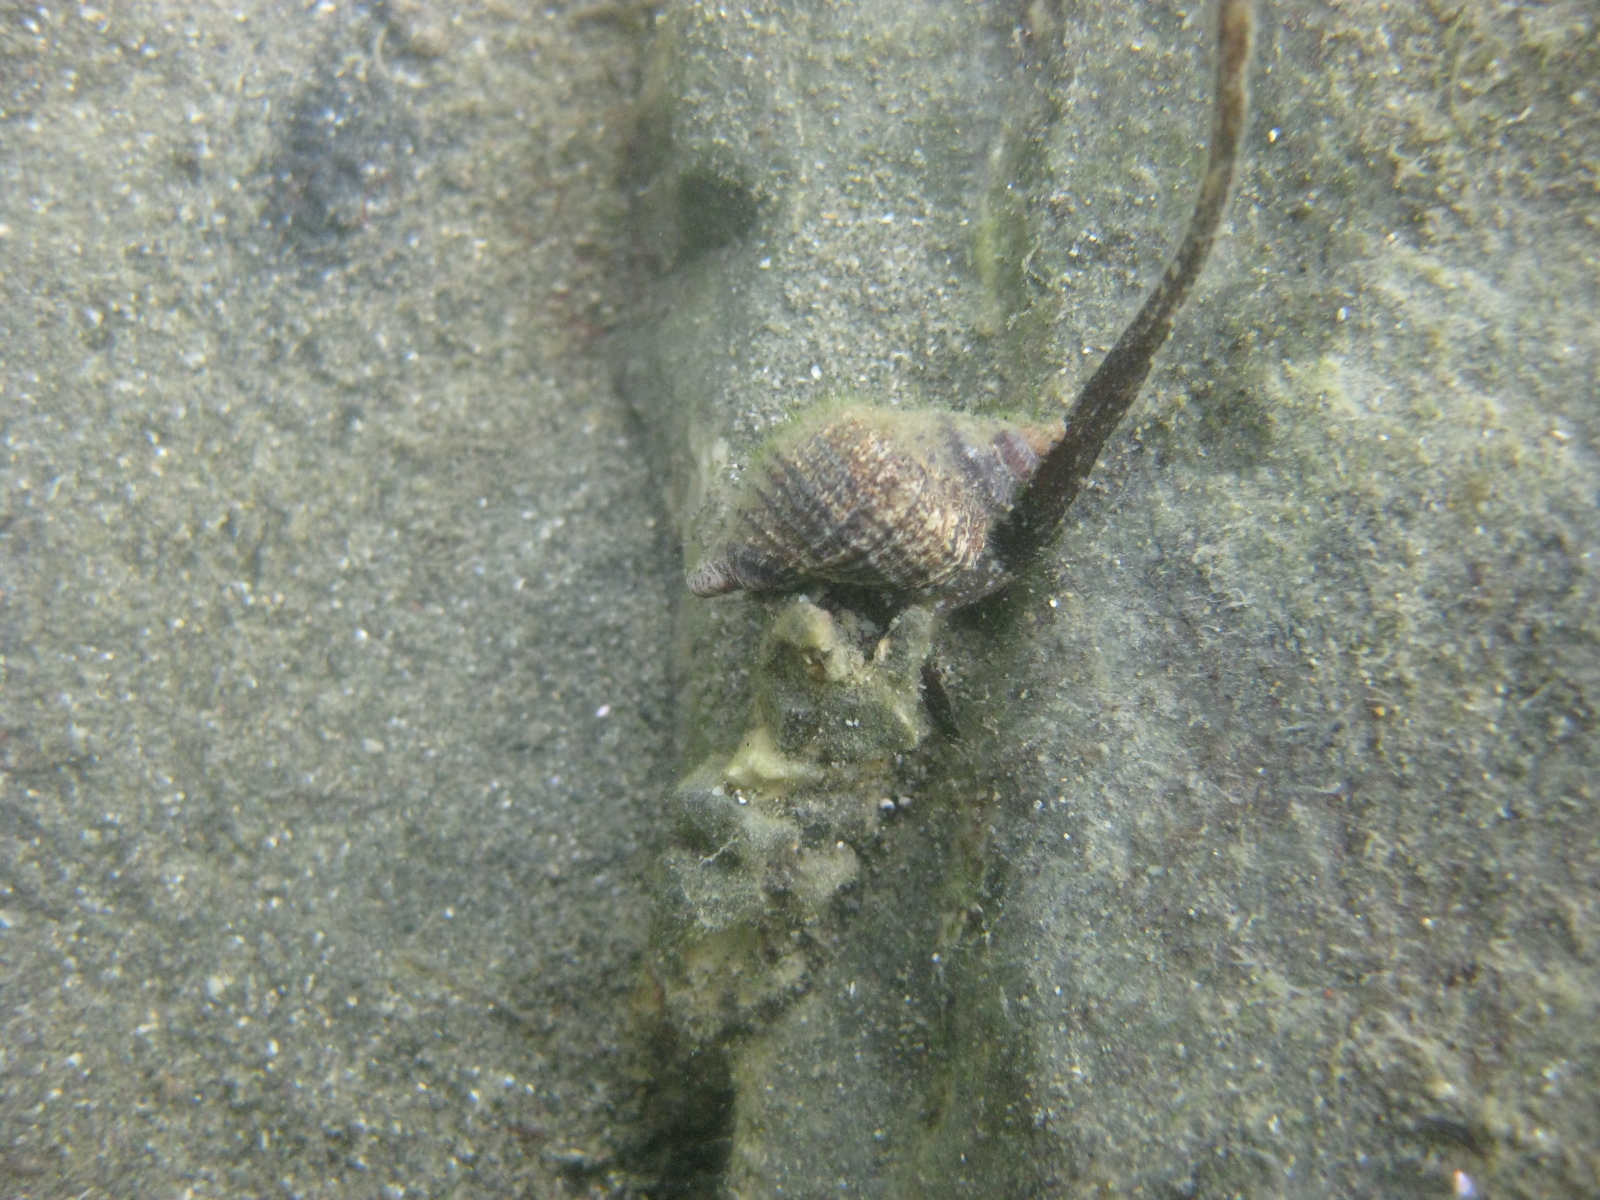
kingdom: Animalia
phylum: Mollusca
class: Gastropoda
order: Neogastropoda
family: Muricidae
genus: Haustrum
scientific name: Haustrum albomarginatum
